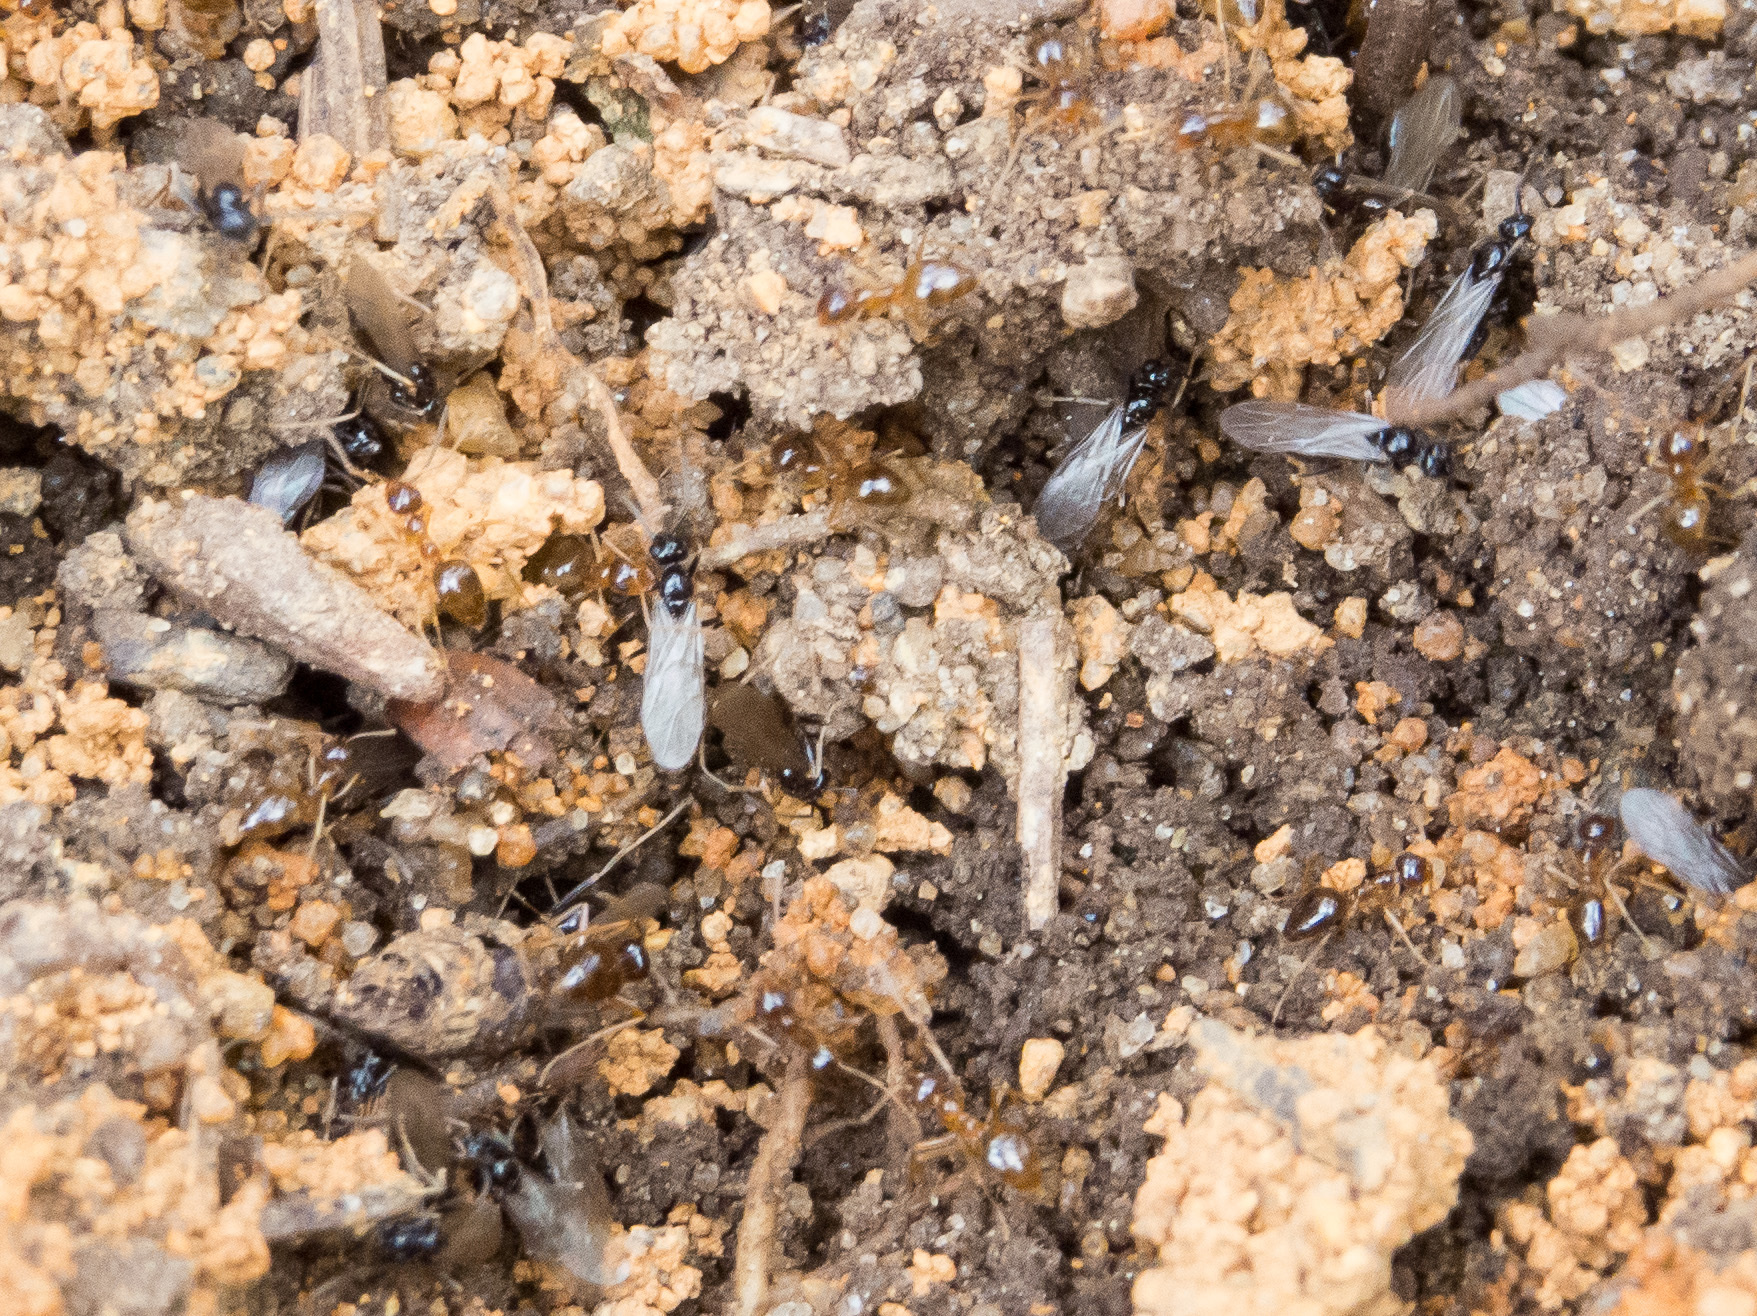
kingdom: Animalia
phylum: Arthropoda
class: Insecta
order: Hymenoptera
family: Formicidae
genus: Prenolepis
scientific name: Prenolepis imparis
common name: Small honey ant
